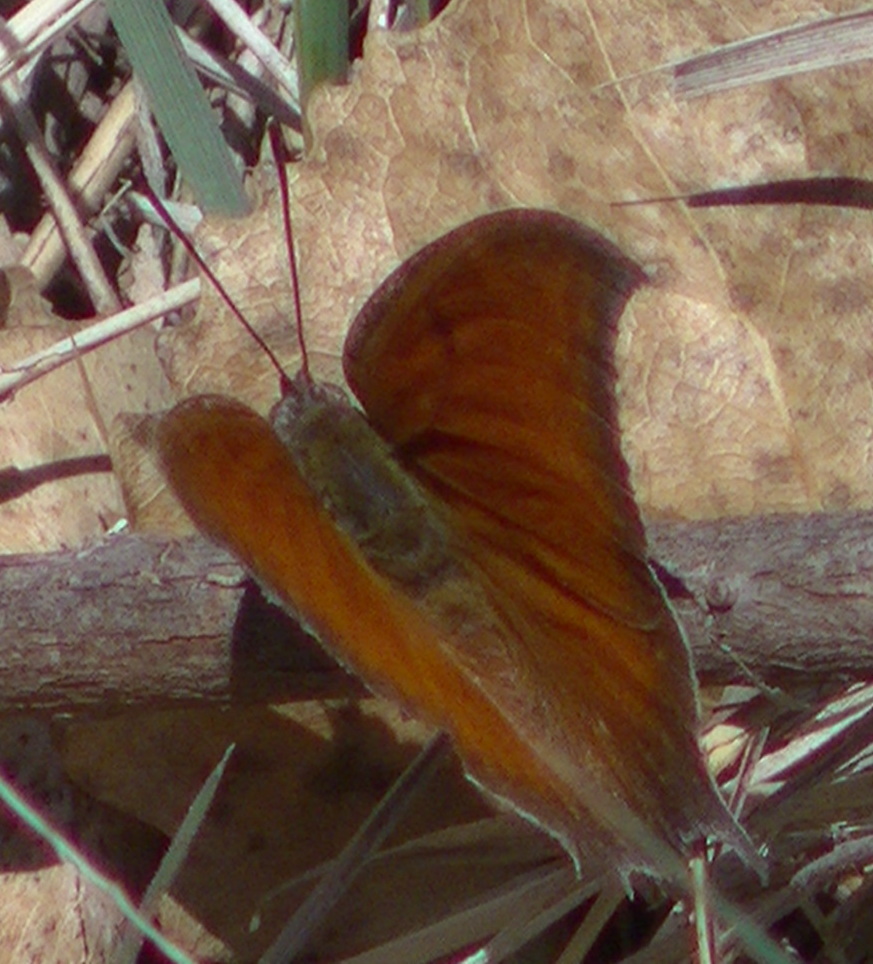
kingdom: Animalia
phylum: Arthropoda
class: Insecta
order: Lepidoptera
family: Nymphalidae
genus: Anaea
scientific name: Anaea andria
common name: Goatweed leafwing
